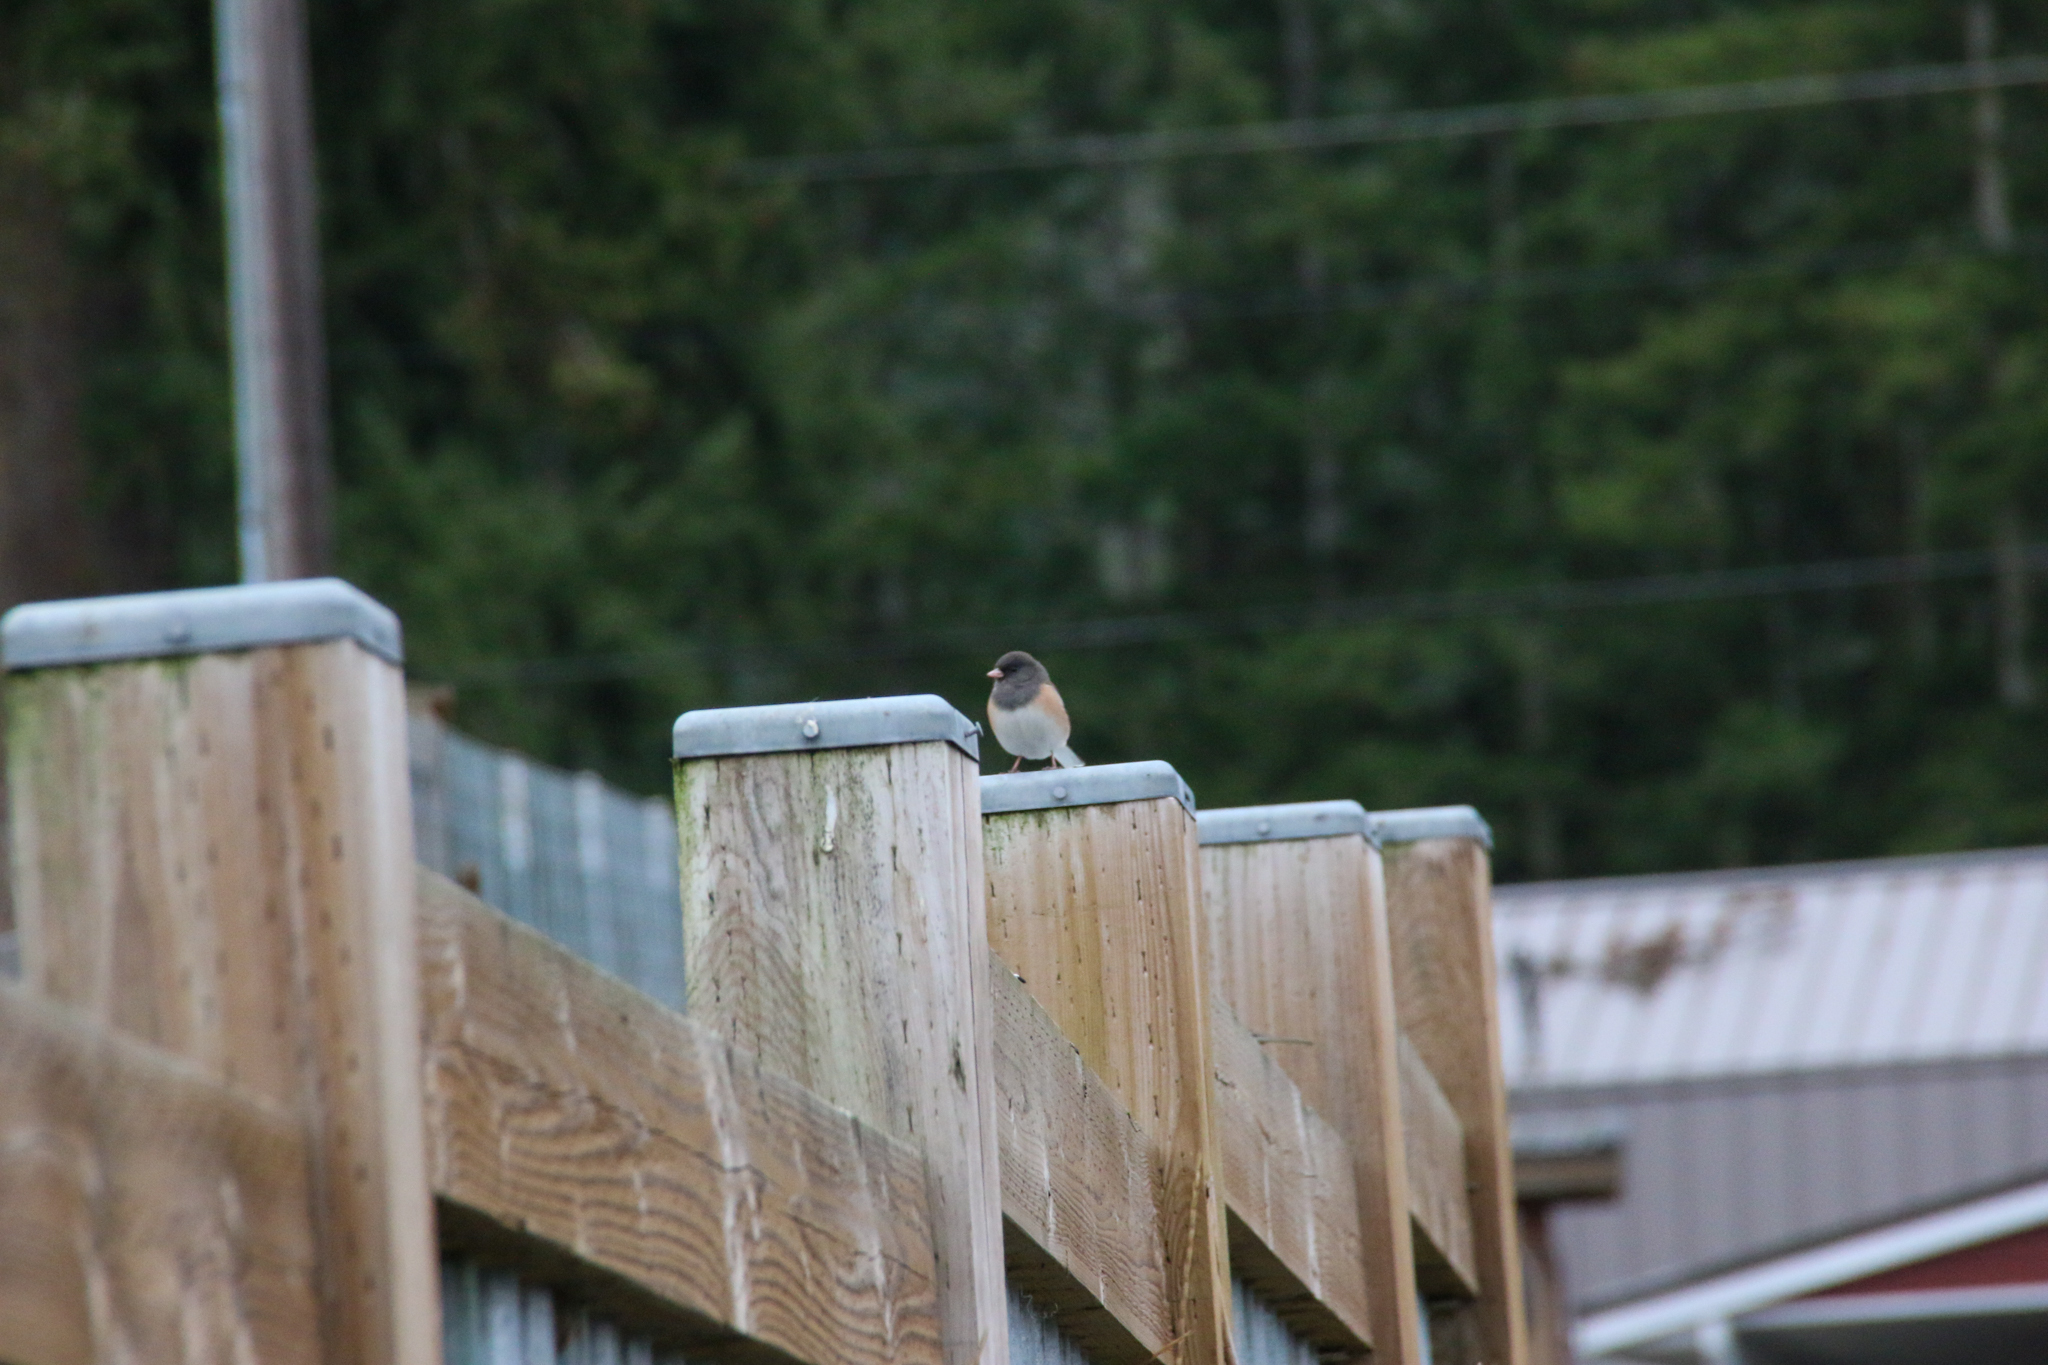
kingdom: Animalia
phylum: Chordata
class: Aves
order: Passeriformes
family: Passerellidae
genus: Junco
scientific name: Junco hyemalis
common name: Dark-eyed junco
